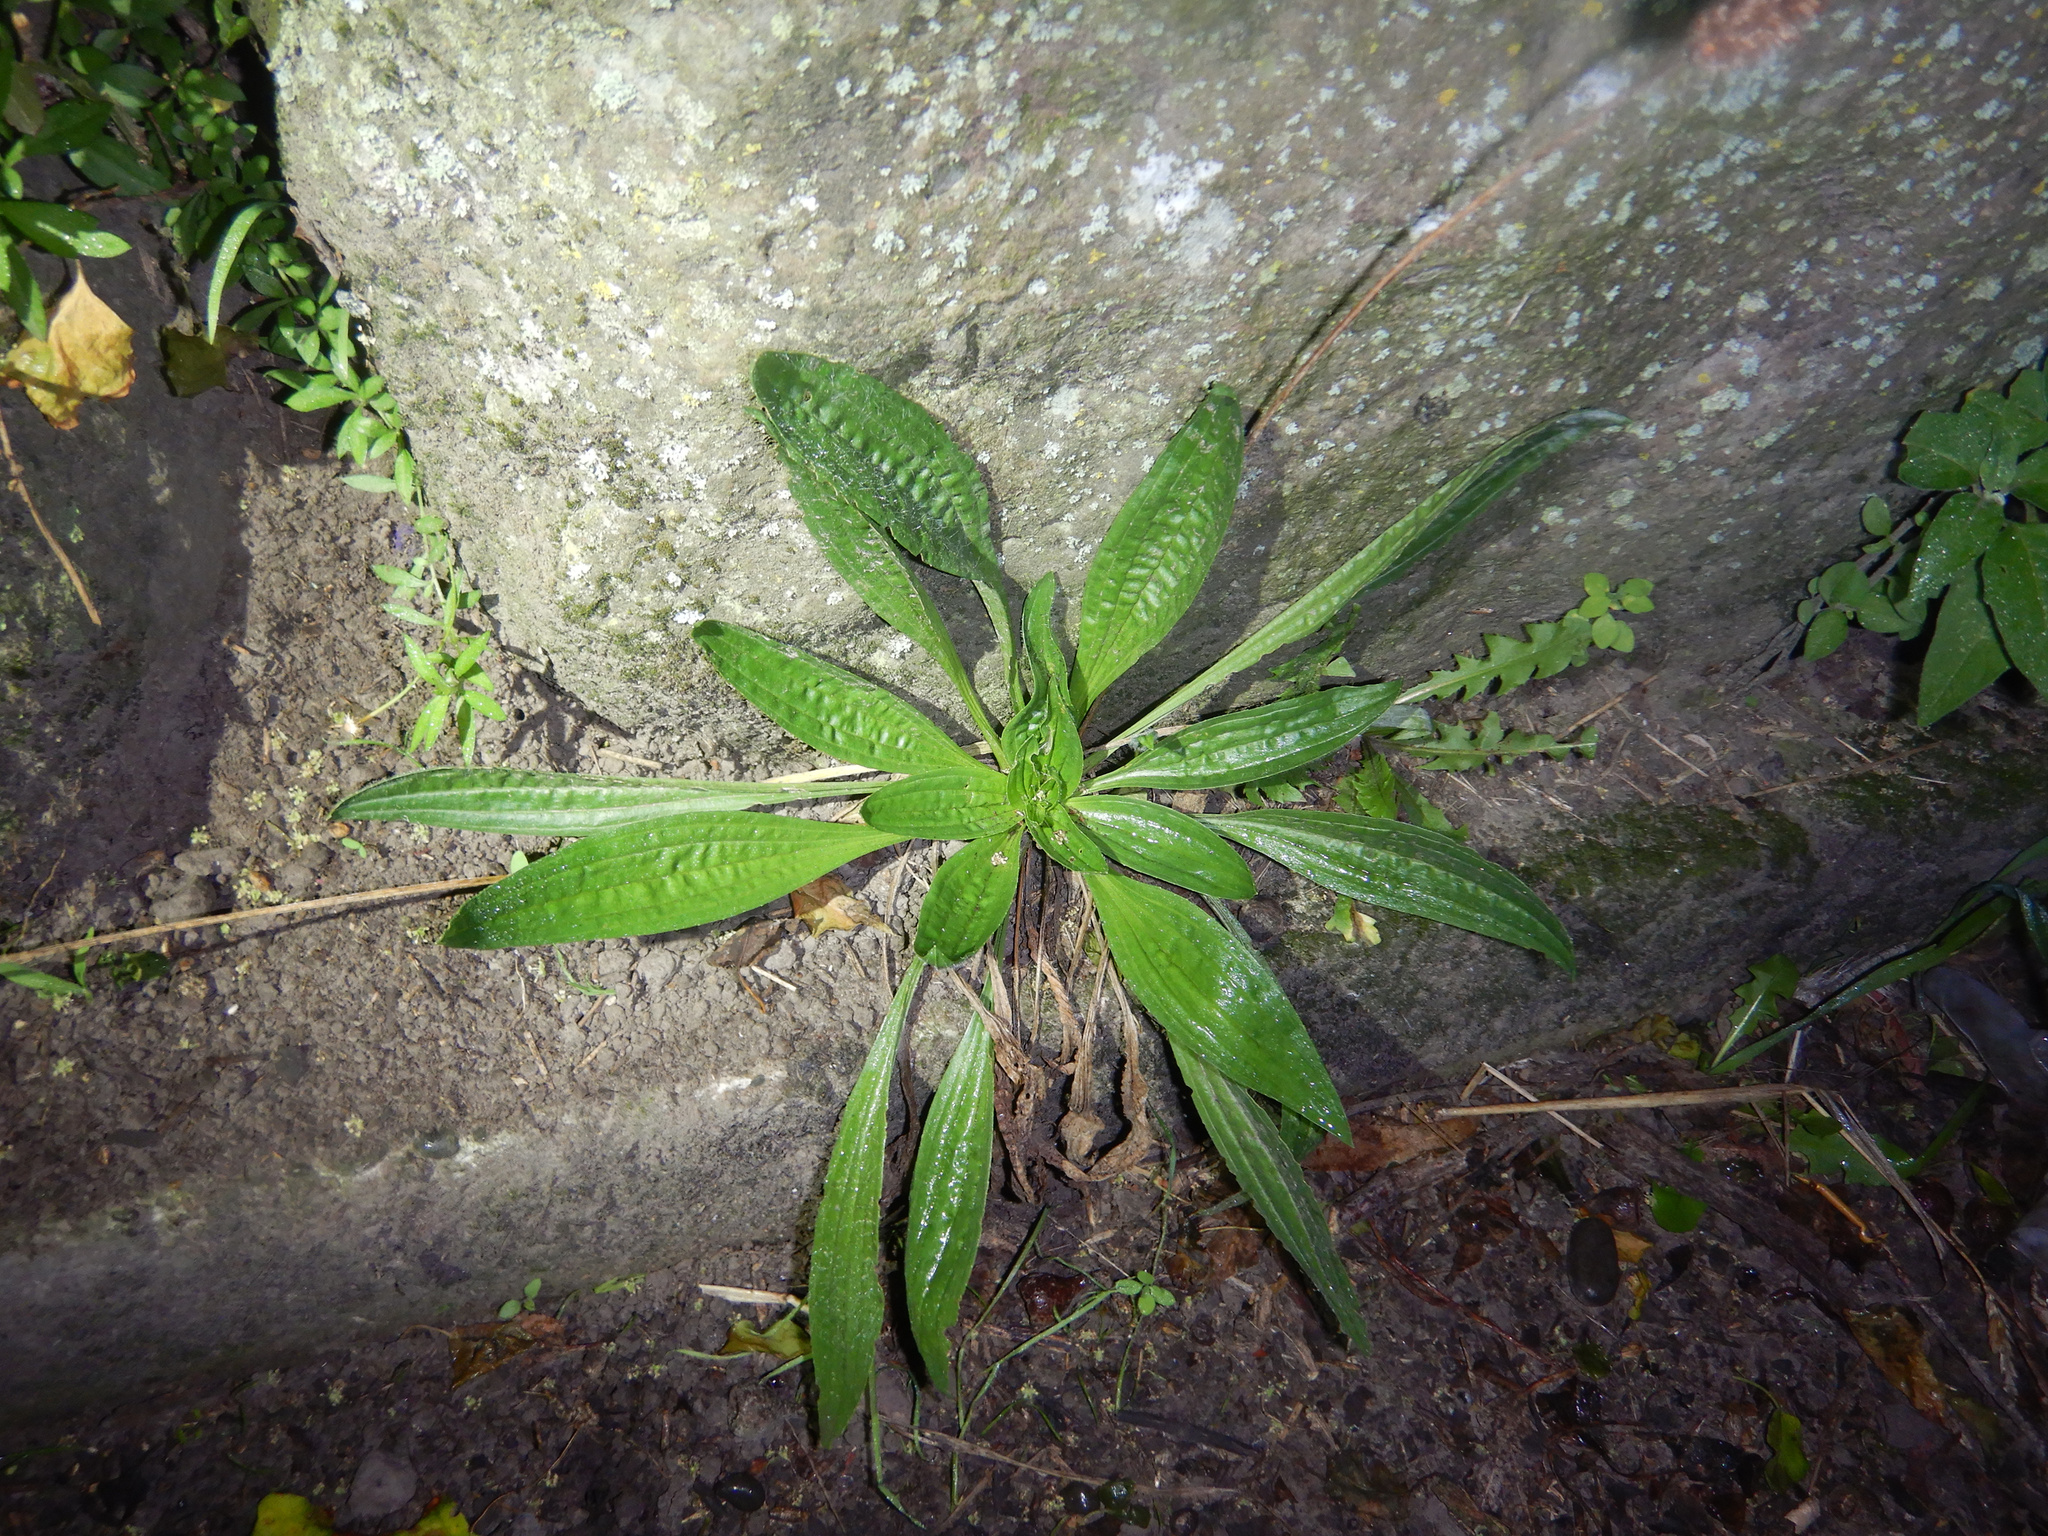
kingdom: Plantae
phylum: Tracheophyta
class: Magnoliopsida
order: Lamiales
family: Plantaginaceae
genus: Plantago
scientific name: Plantago lanceolata
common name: Ribwort plantain
